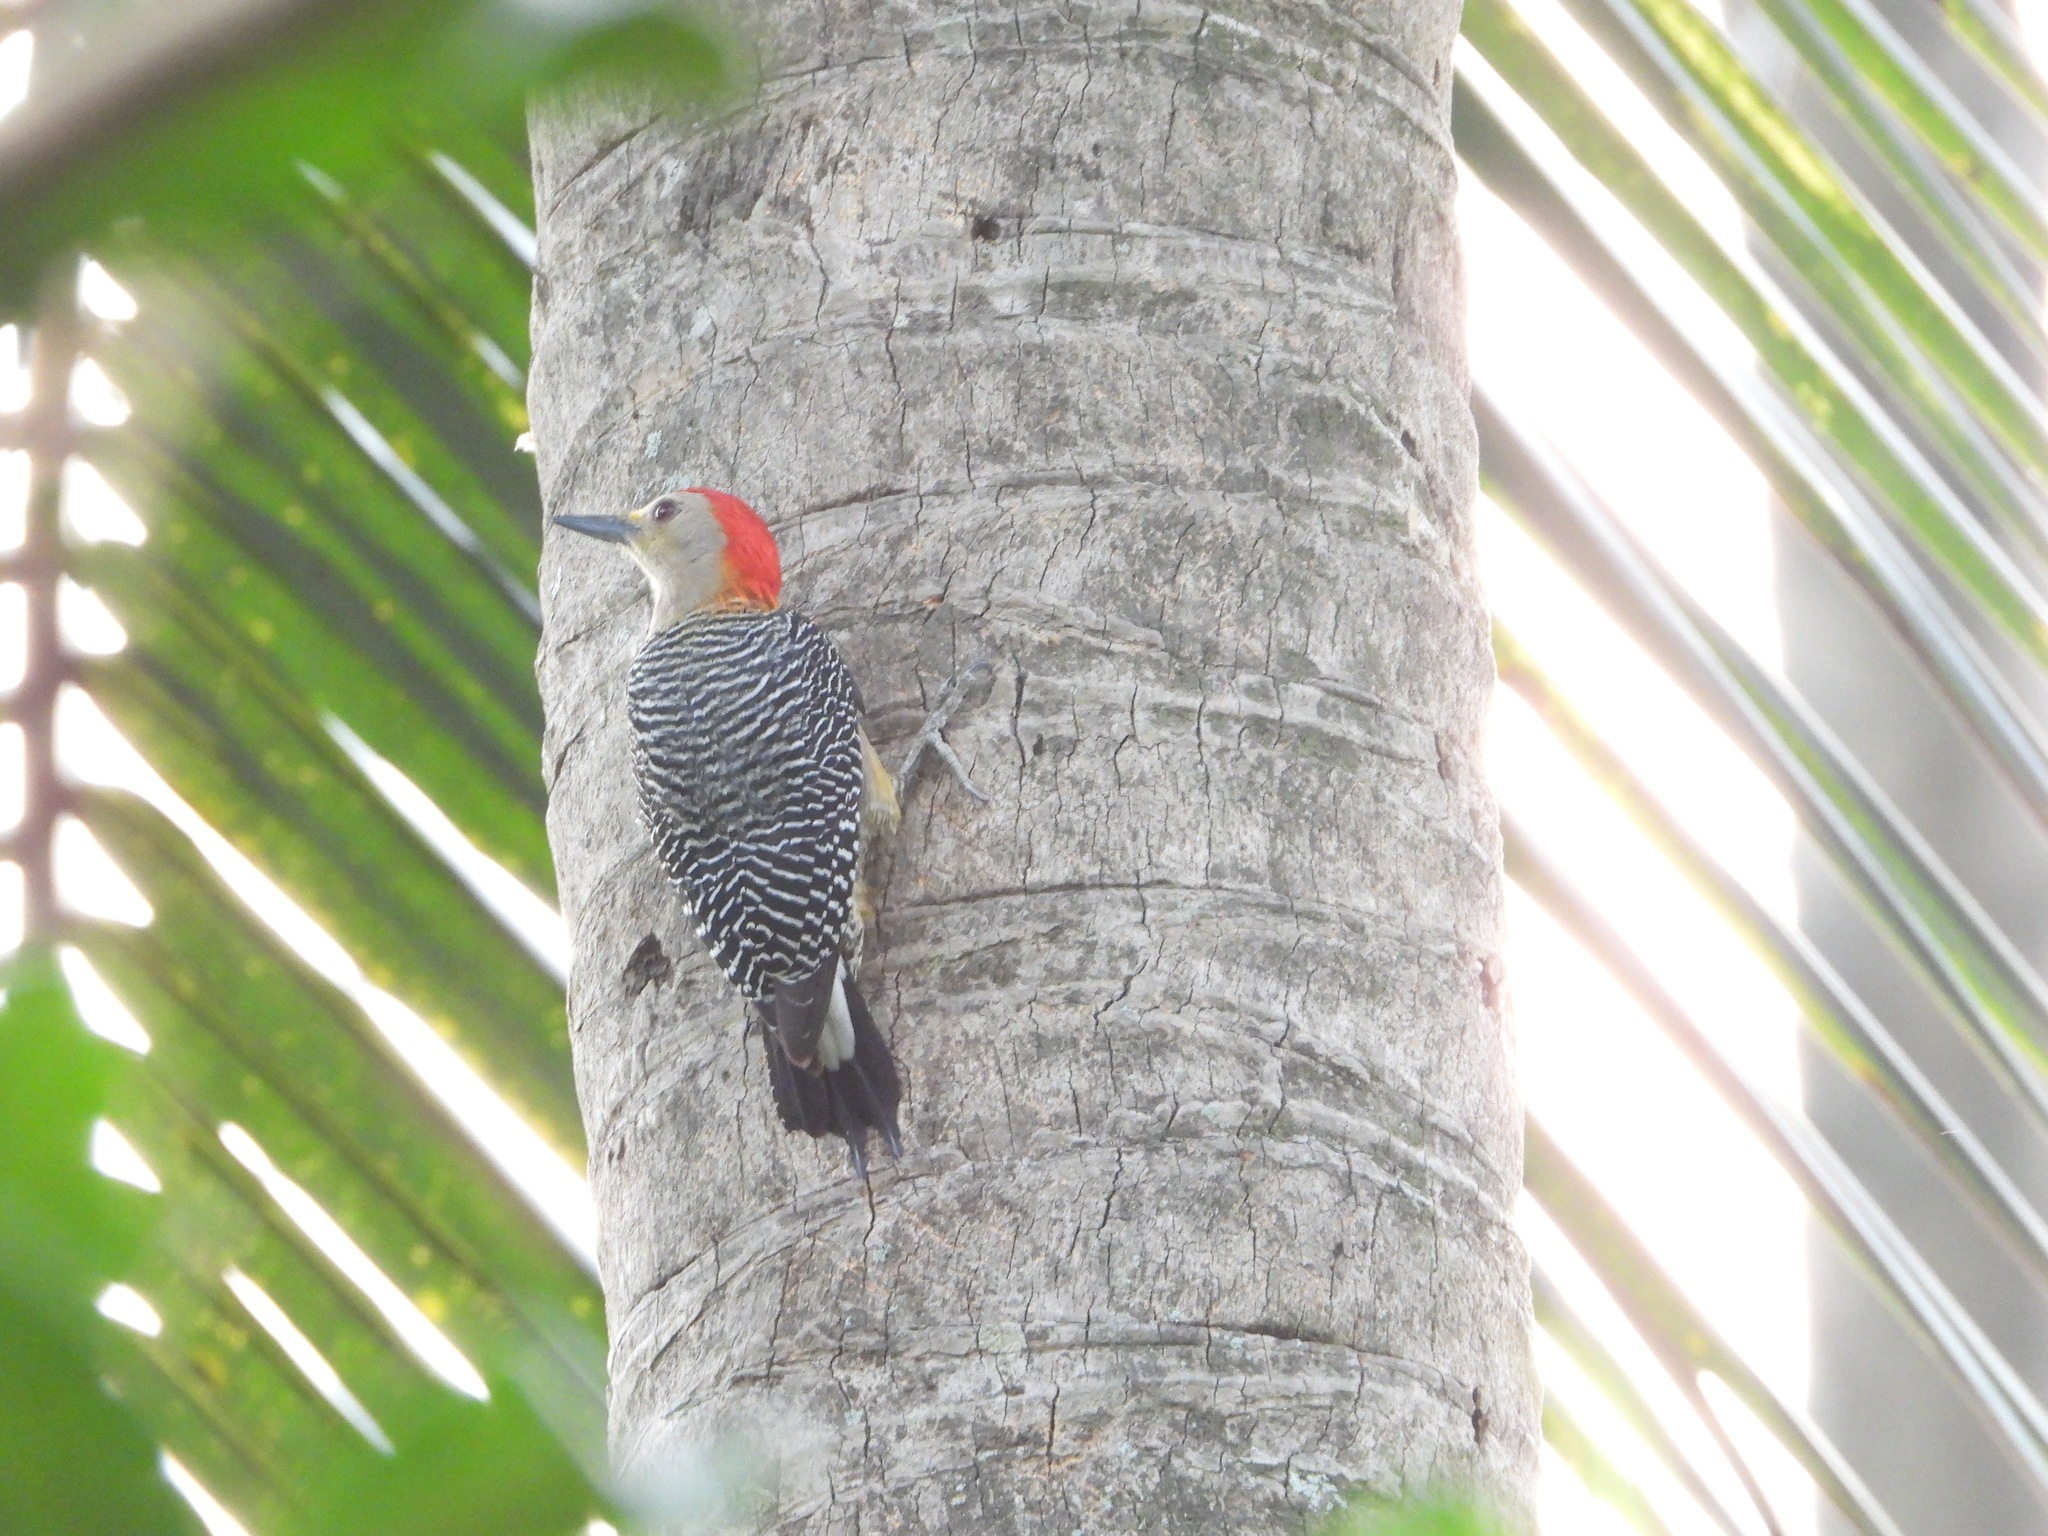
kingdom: Animalia
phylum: Chordata
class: Aves
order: Piciformes
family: Picidae
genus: Melanerpes
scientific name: Melanerpes aurifrons
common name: Golden-fronted woodpecker
